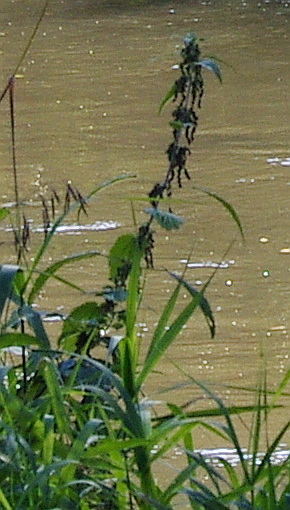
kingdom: Plantae
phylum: Tracheophyta
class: Magnoliopsida
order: Rosales
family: Urticaceae
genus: Urtica
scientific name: Urtica dioica
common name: Common nettle
